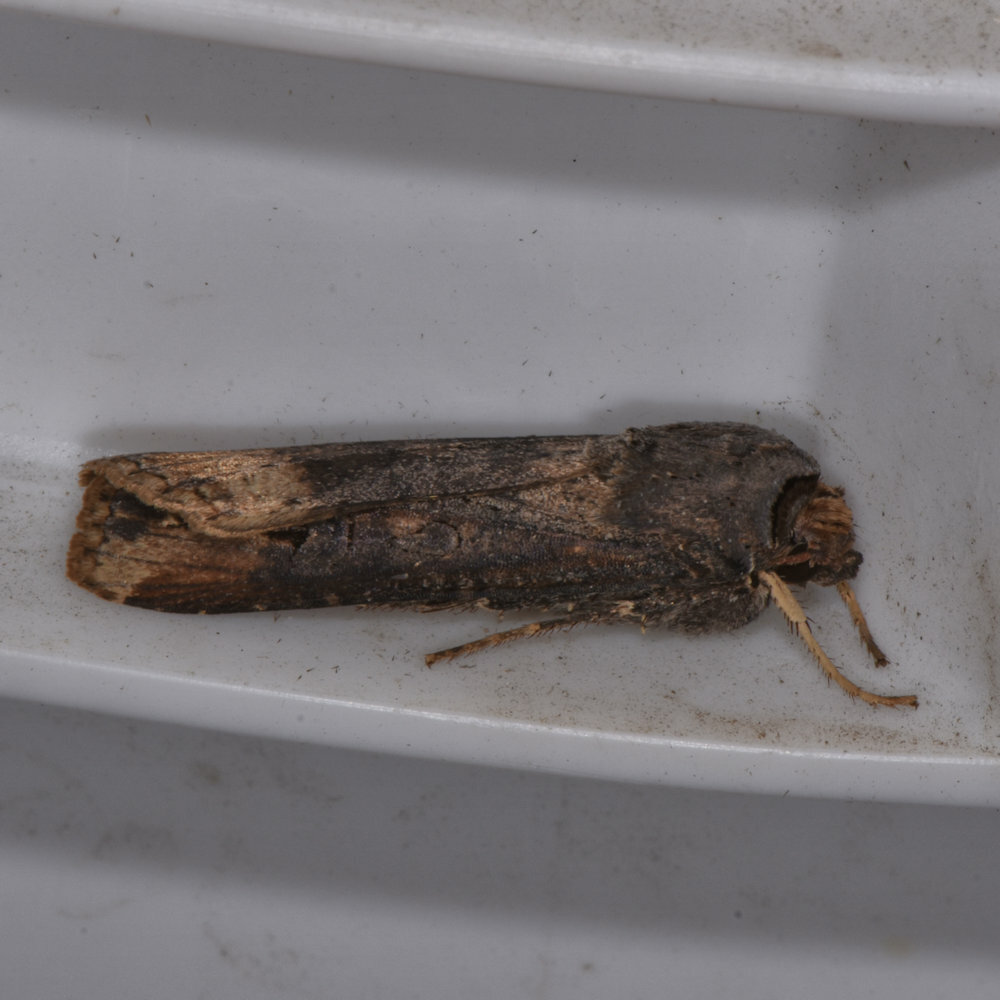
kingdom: Animalia
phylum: Arthropoda
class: Insecta
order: Lepidoptera
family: Noctuidae
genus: Agrotis
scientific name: Agrotis ipsilon
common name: Dark sword-grass
